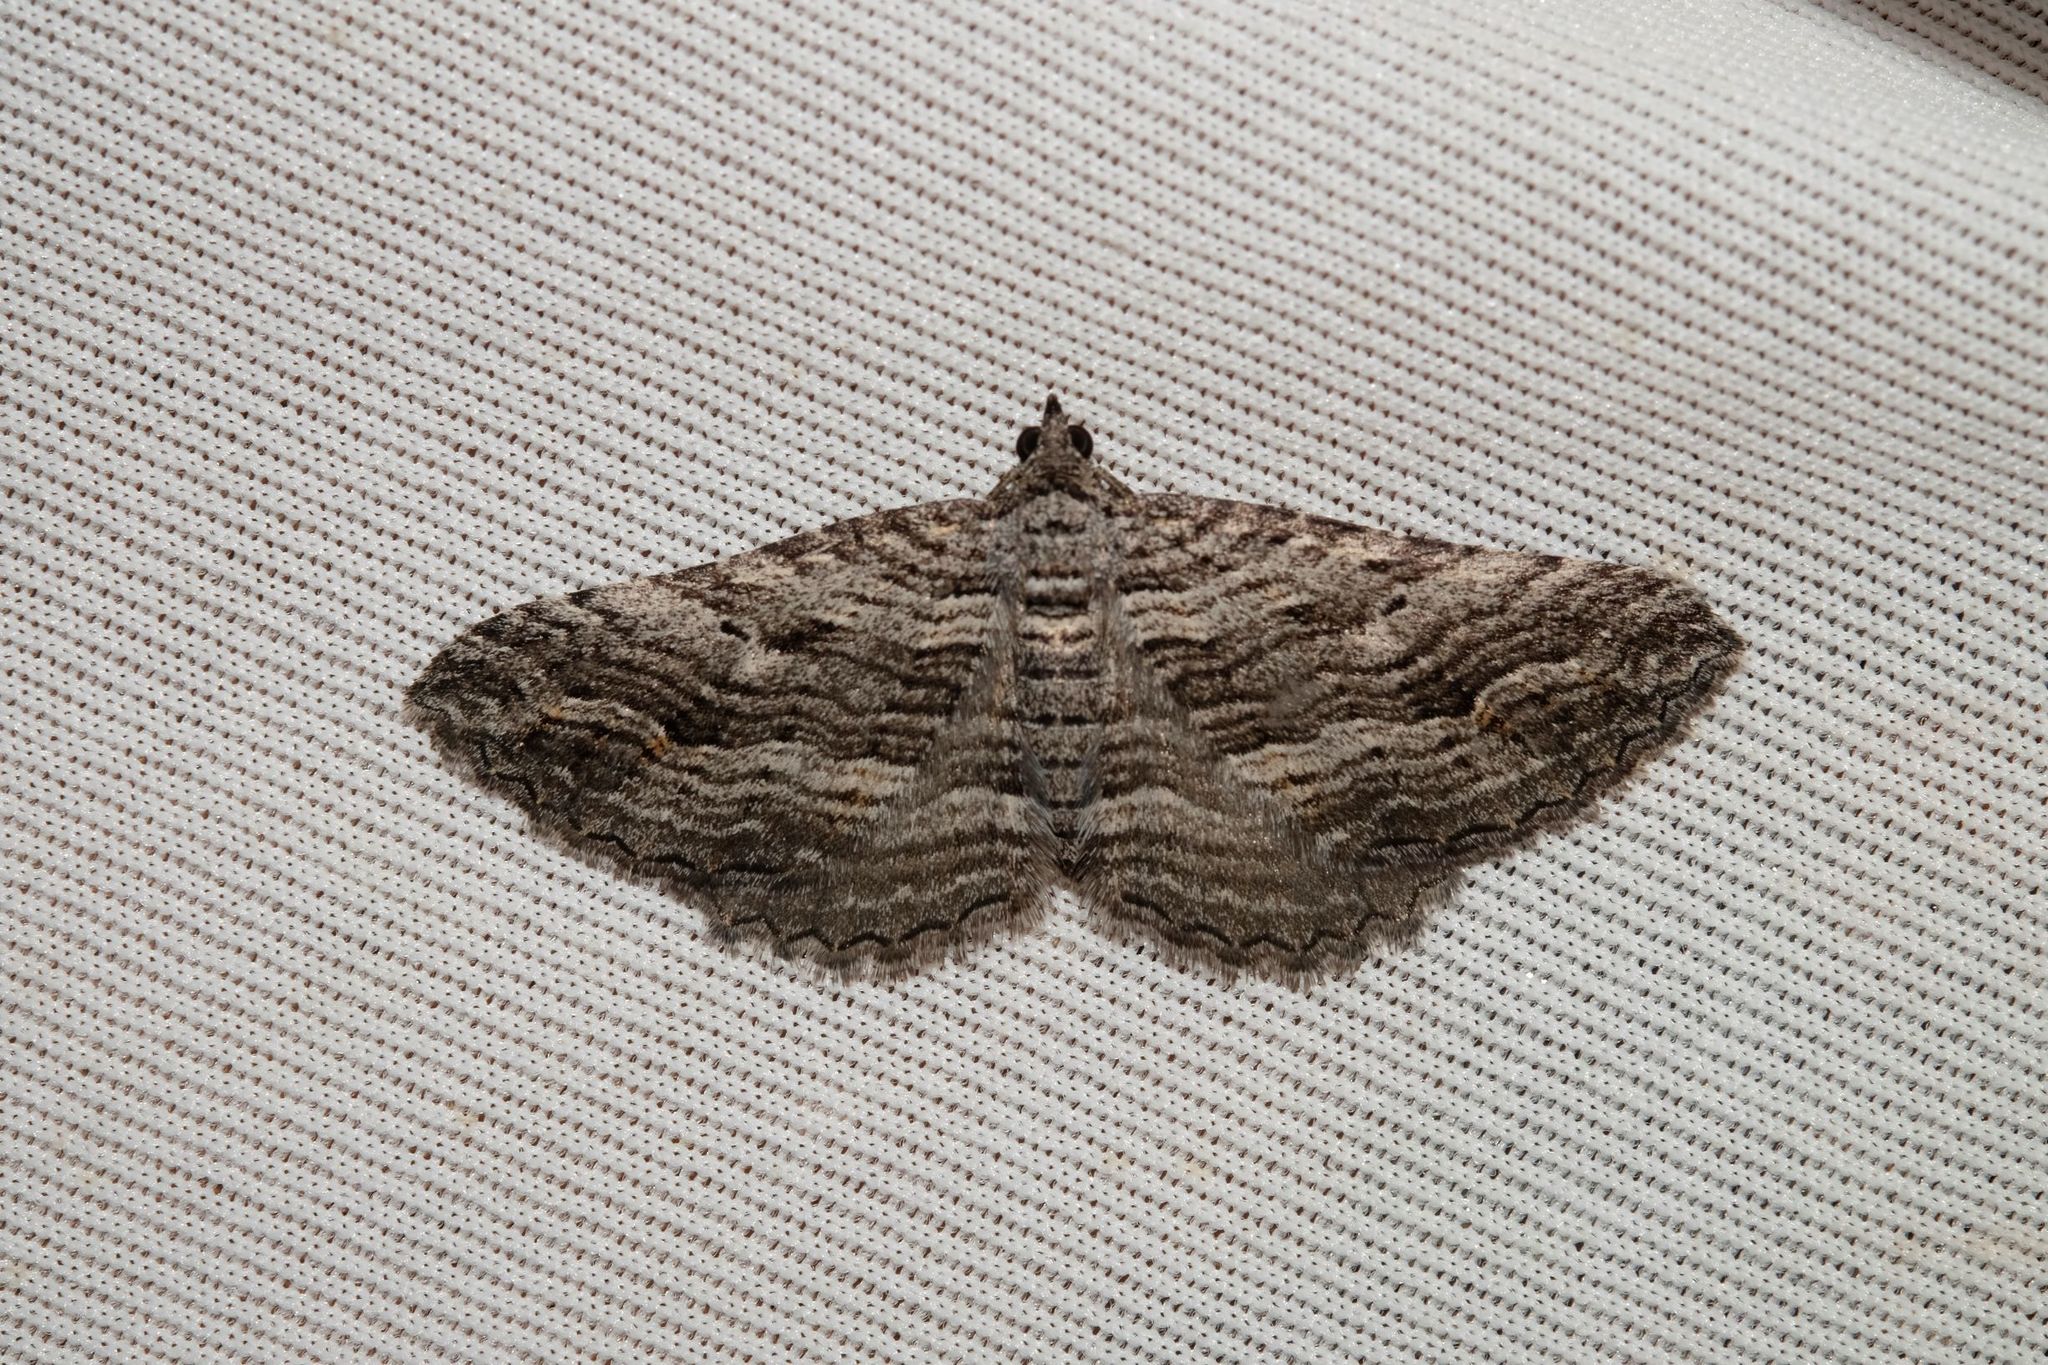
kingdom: Animalia
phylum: Arthropoda
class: Insecta
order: Lepidoptera
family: Geometridae
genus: Chrysolarentia
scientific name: Chrysolarentia severata
